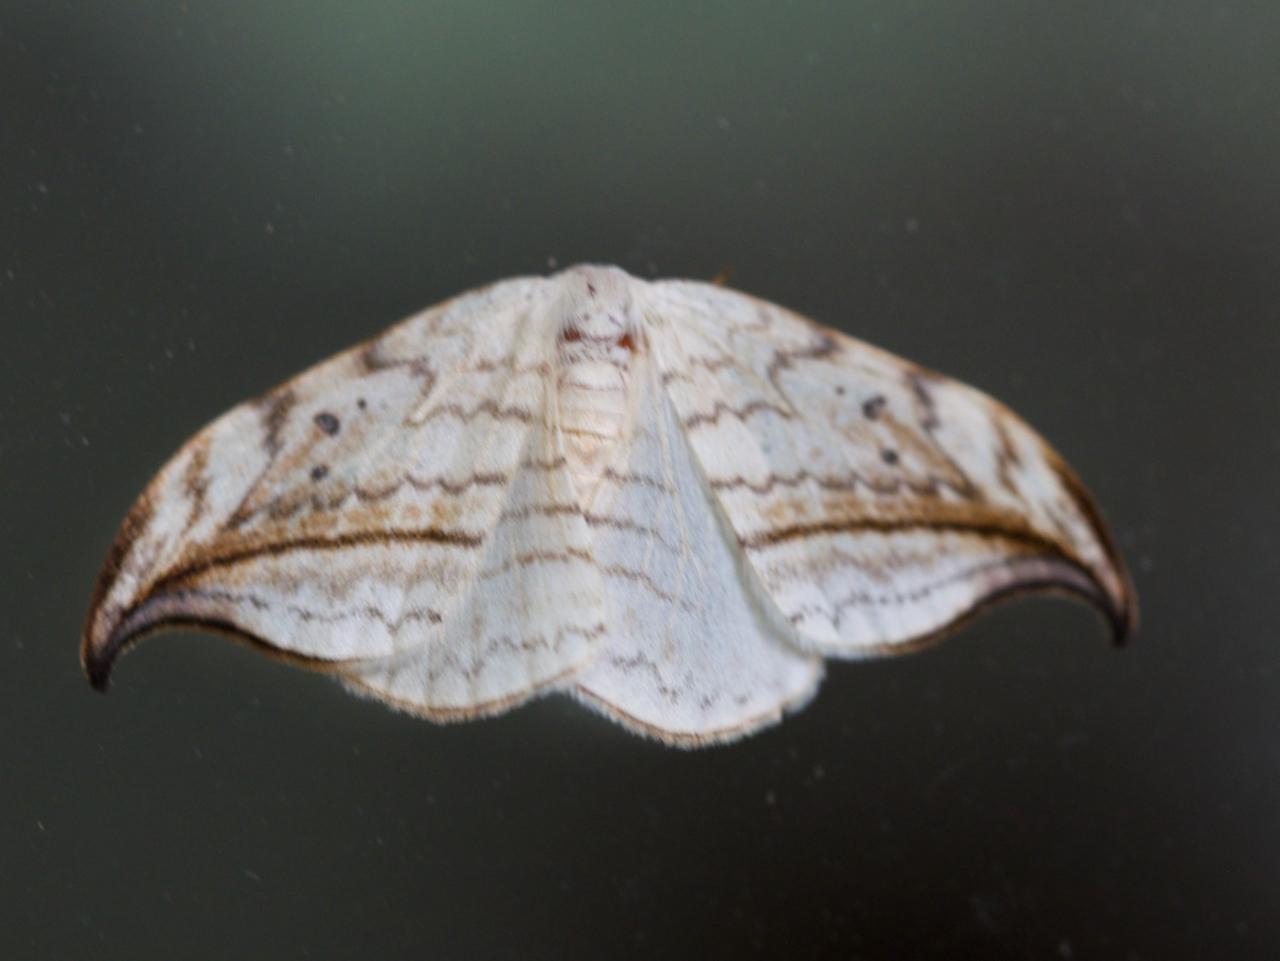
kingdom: Animalia
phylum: Arthropoda
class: Insecta
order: Lepidoptera
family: Drepanidae
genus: Drepana
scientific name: Drepana arcuata
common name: Arched hooktip moth
